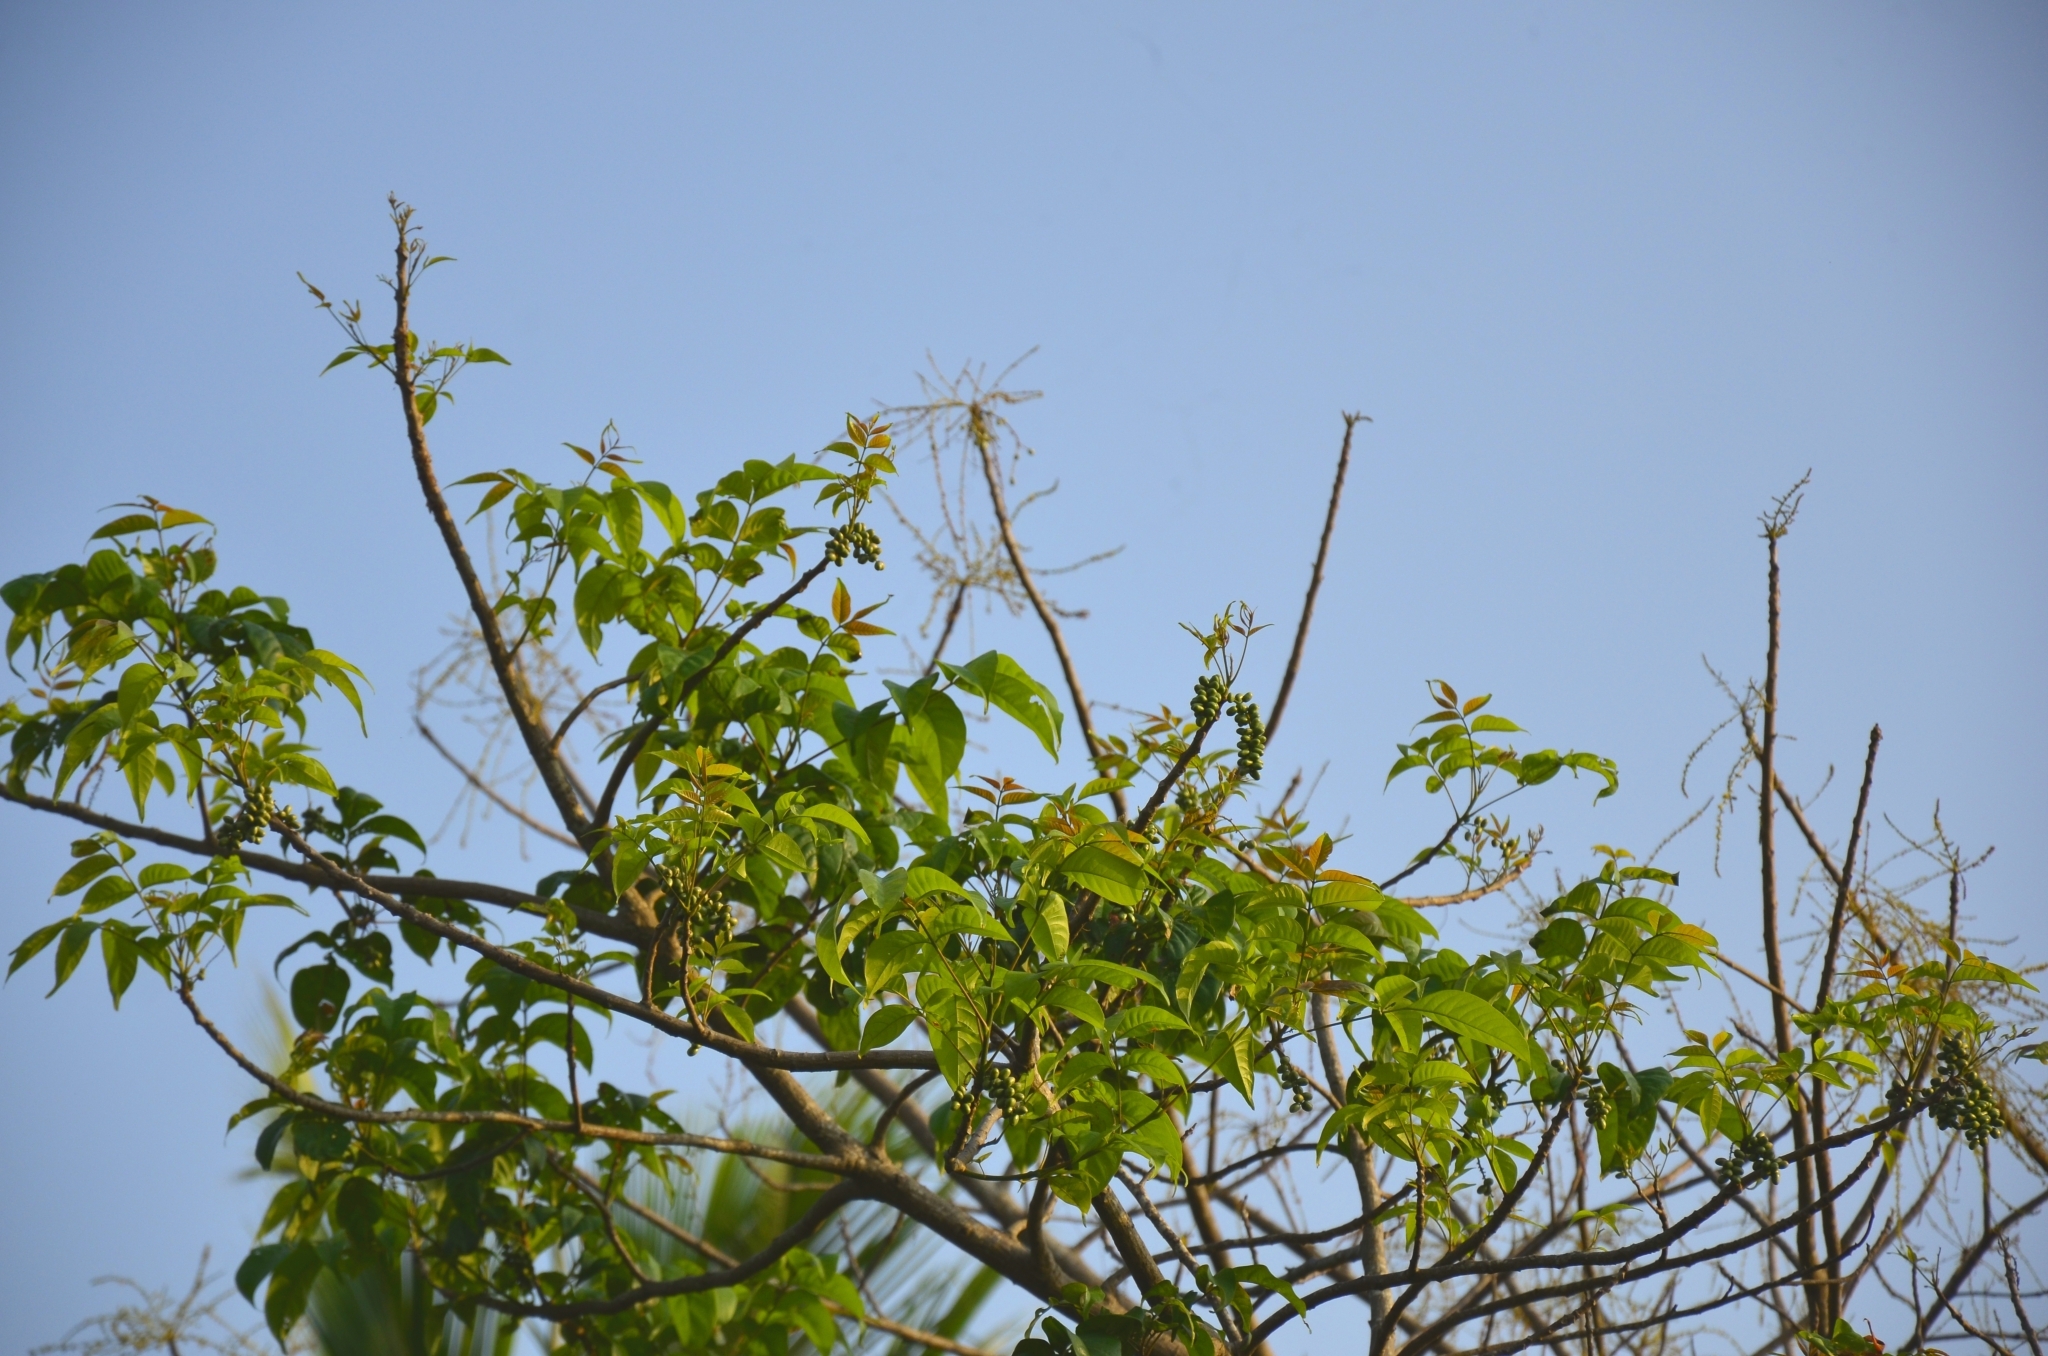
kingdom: Plantae
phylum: Tracheophyta
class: Magnoliopsida
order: Sapindales
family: Anacardiaceae
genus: Lannea
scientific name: Lannea coromandelica
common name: Indian ash tree
